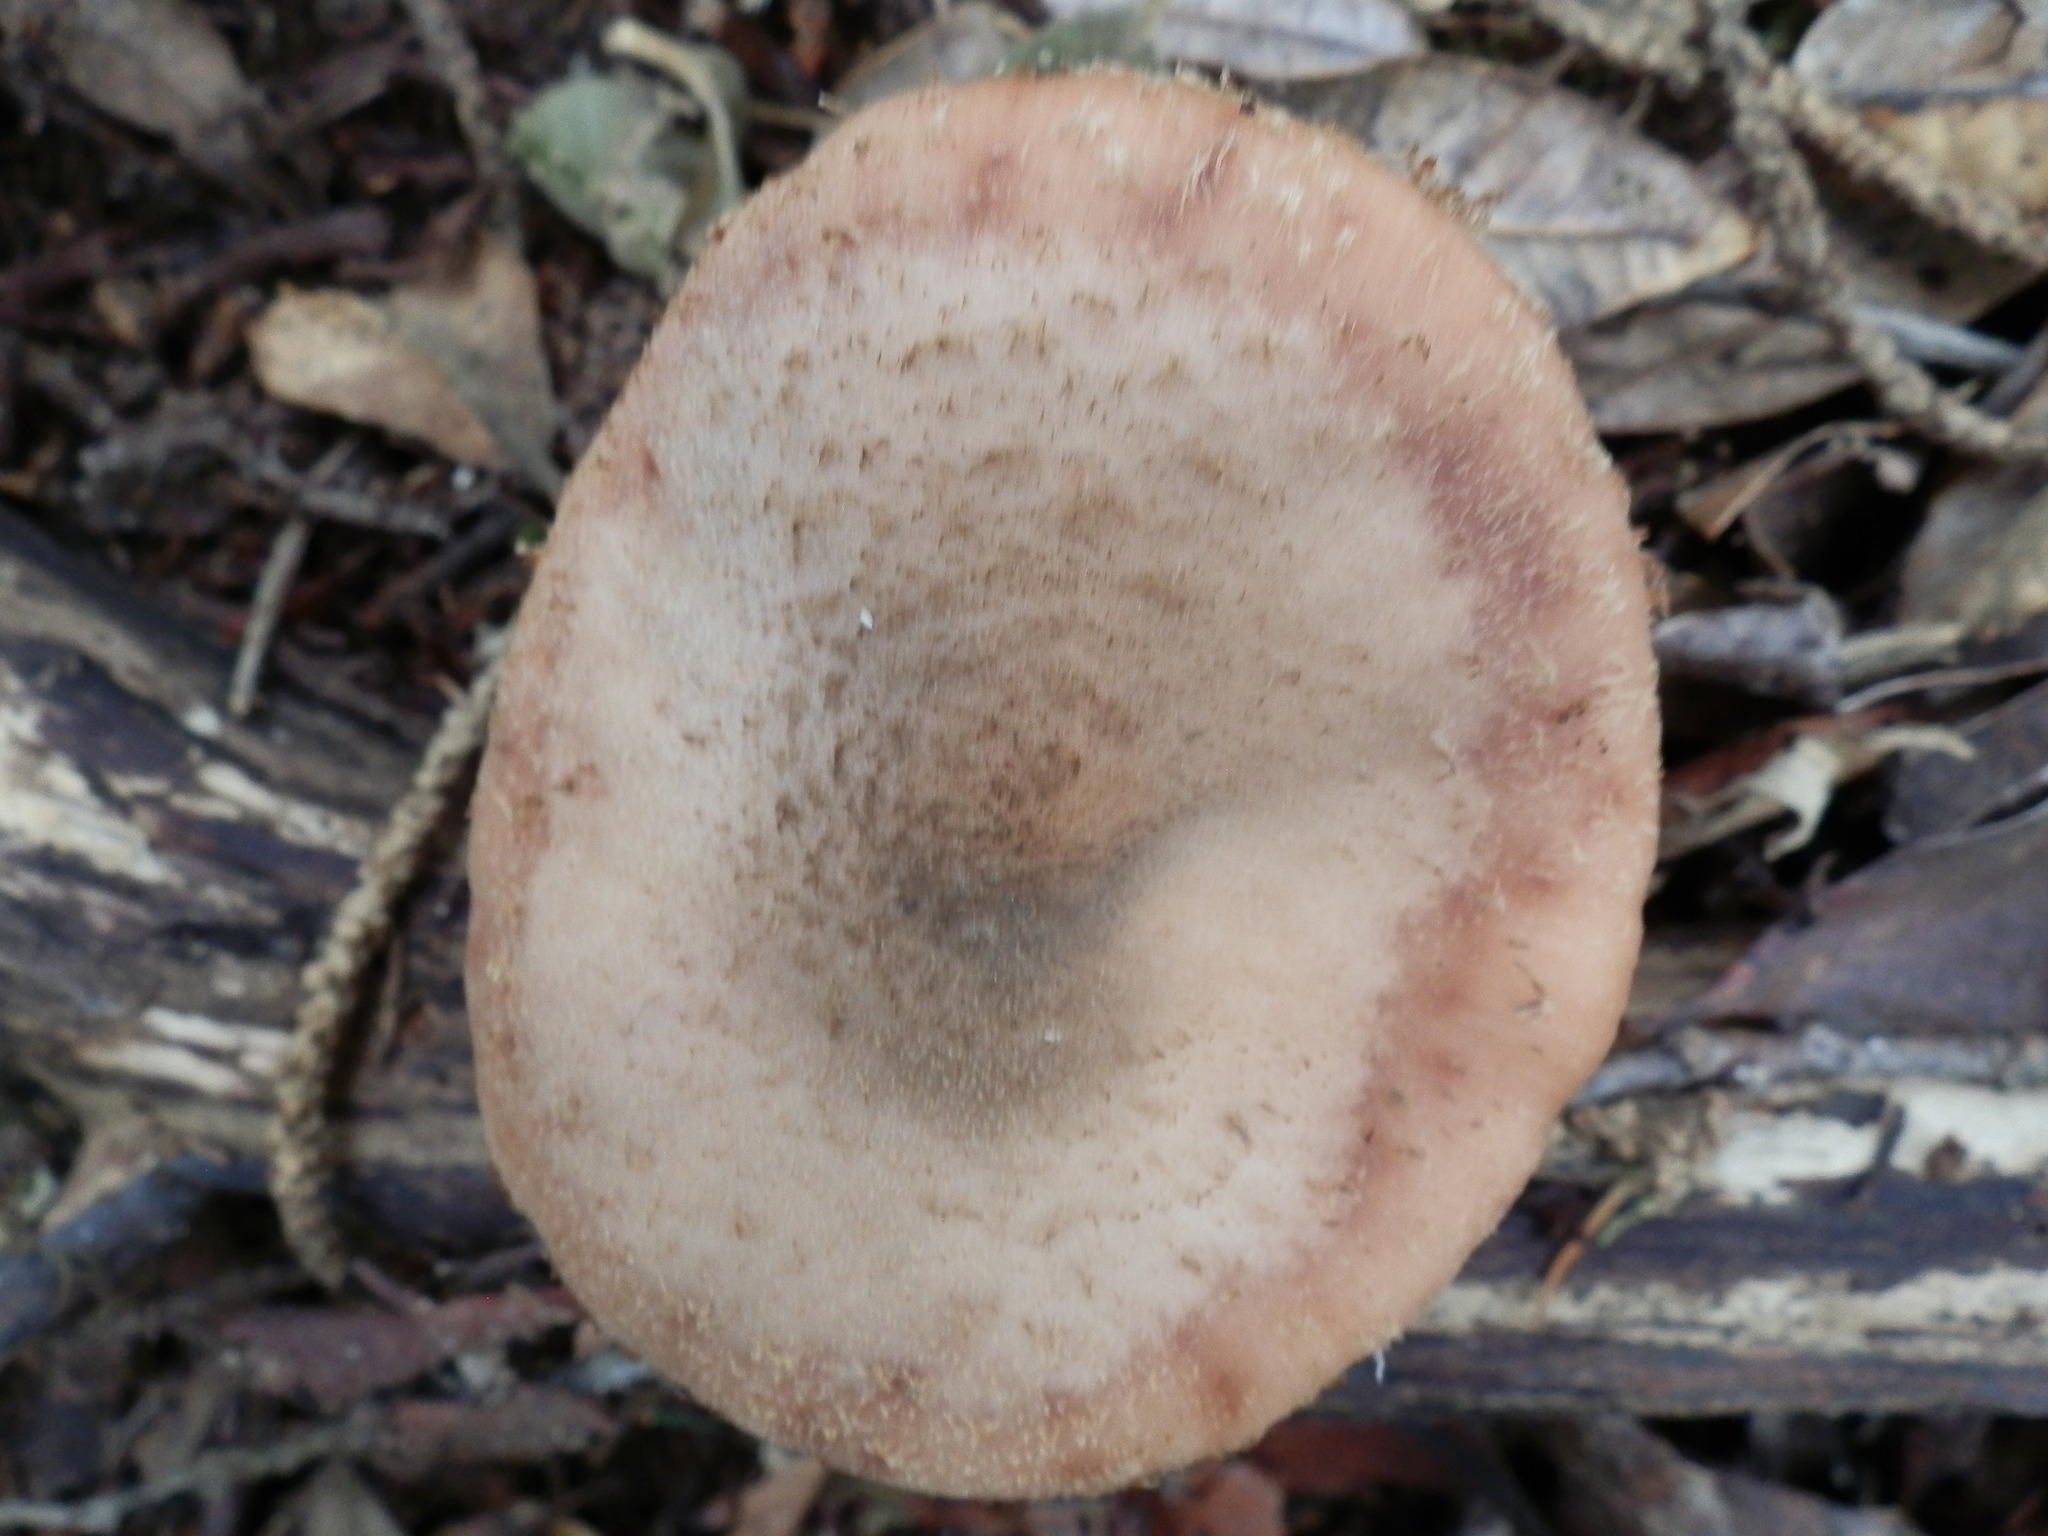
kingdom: Fungi
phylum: Basidiomycota
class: Agaricomycetes
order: Agaricales
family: Physalacriaceae
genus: Armillaria
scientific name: Armillaria sinapina
